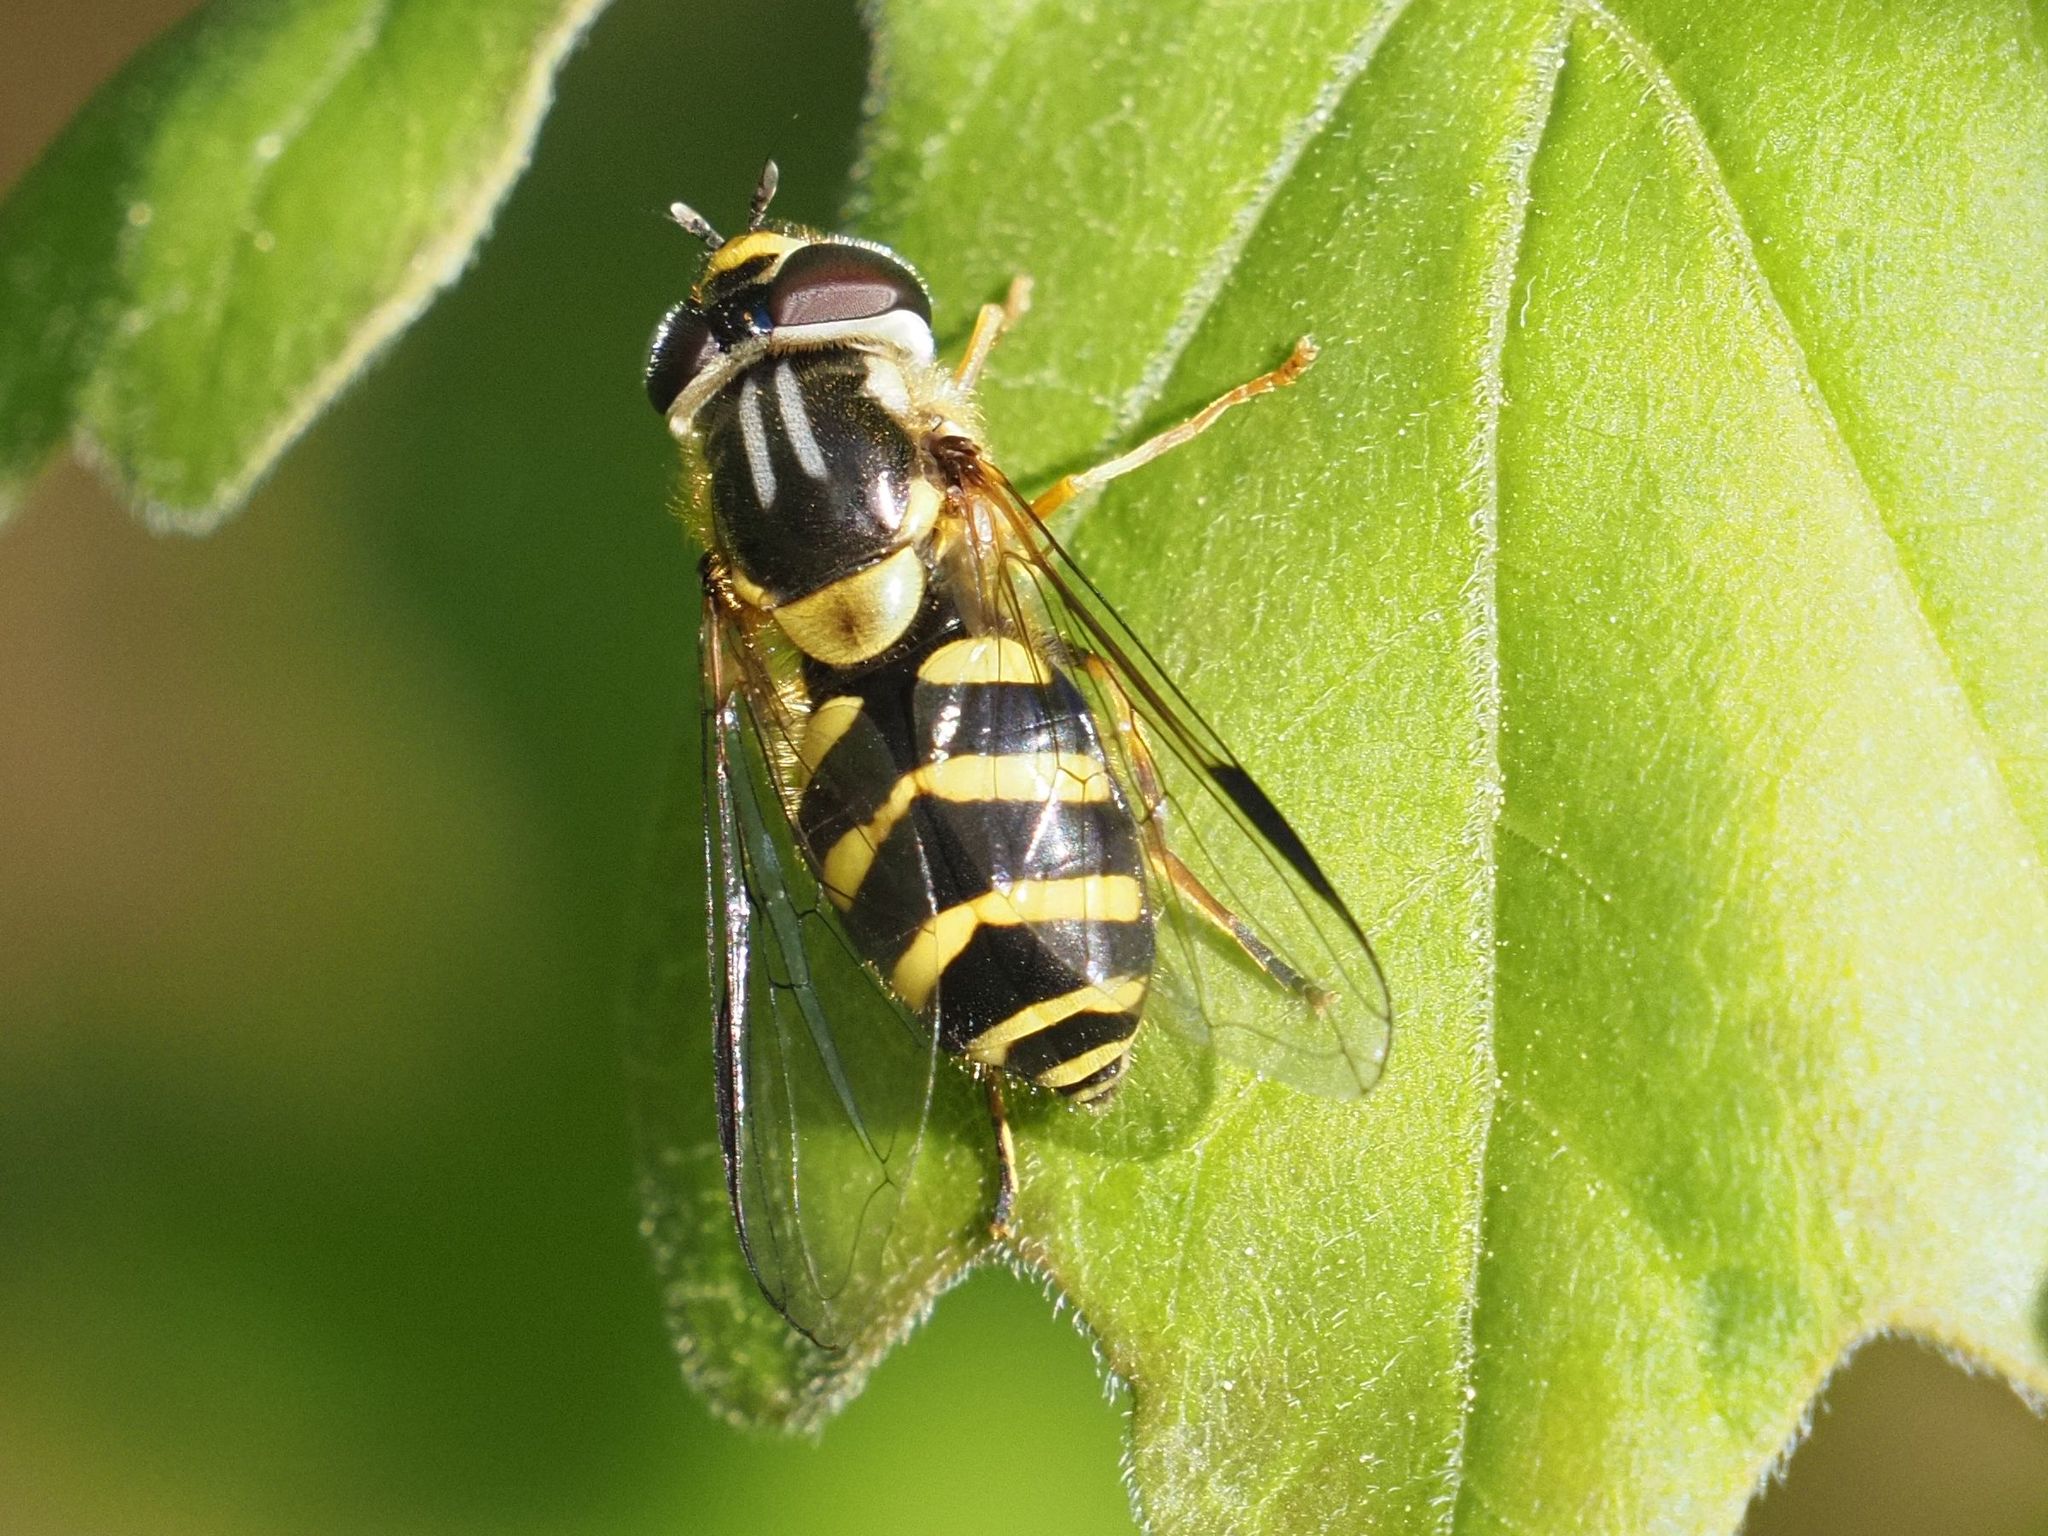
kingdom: Animalia
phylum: Arthropoda
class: Insecta
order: Diptera
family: Syrphidae
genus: Dasysyrphus
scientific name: Dasysyrphus albostriatus
